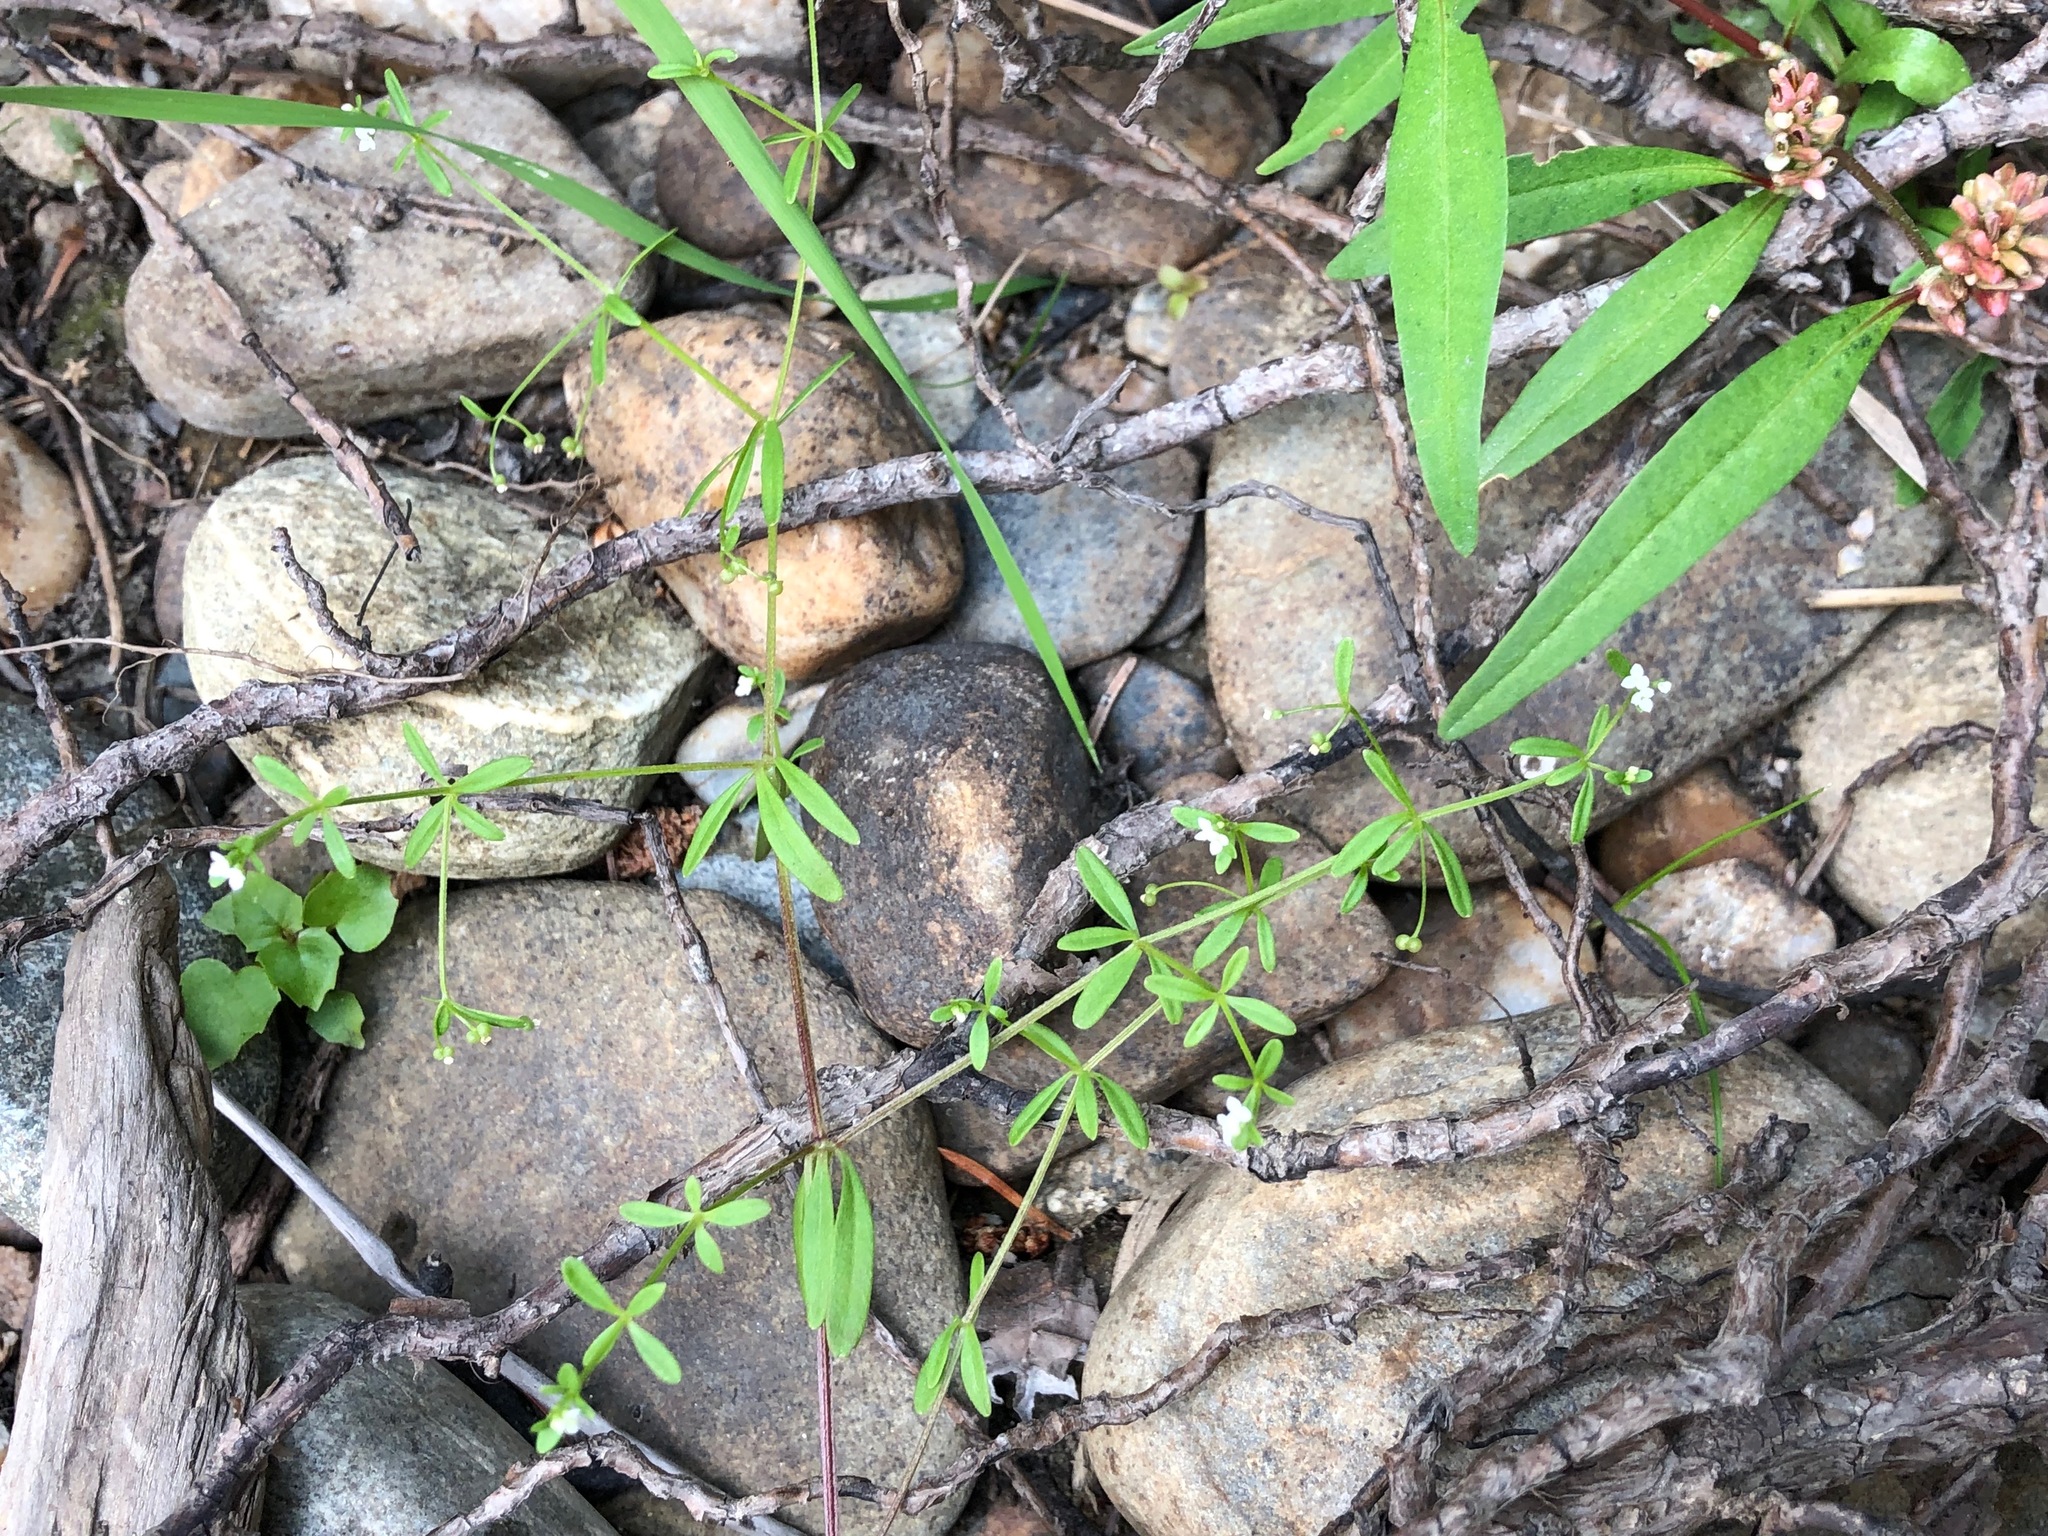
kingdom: Plantae
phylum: Tracheophyta
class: Magnoliopsida
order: Gentianales
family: Rubiaceae
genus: Galium
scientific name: Galium trifidum
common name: Small bedstraw
